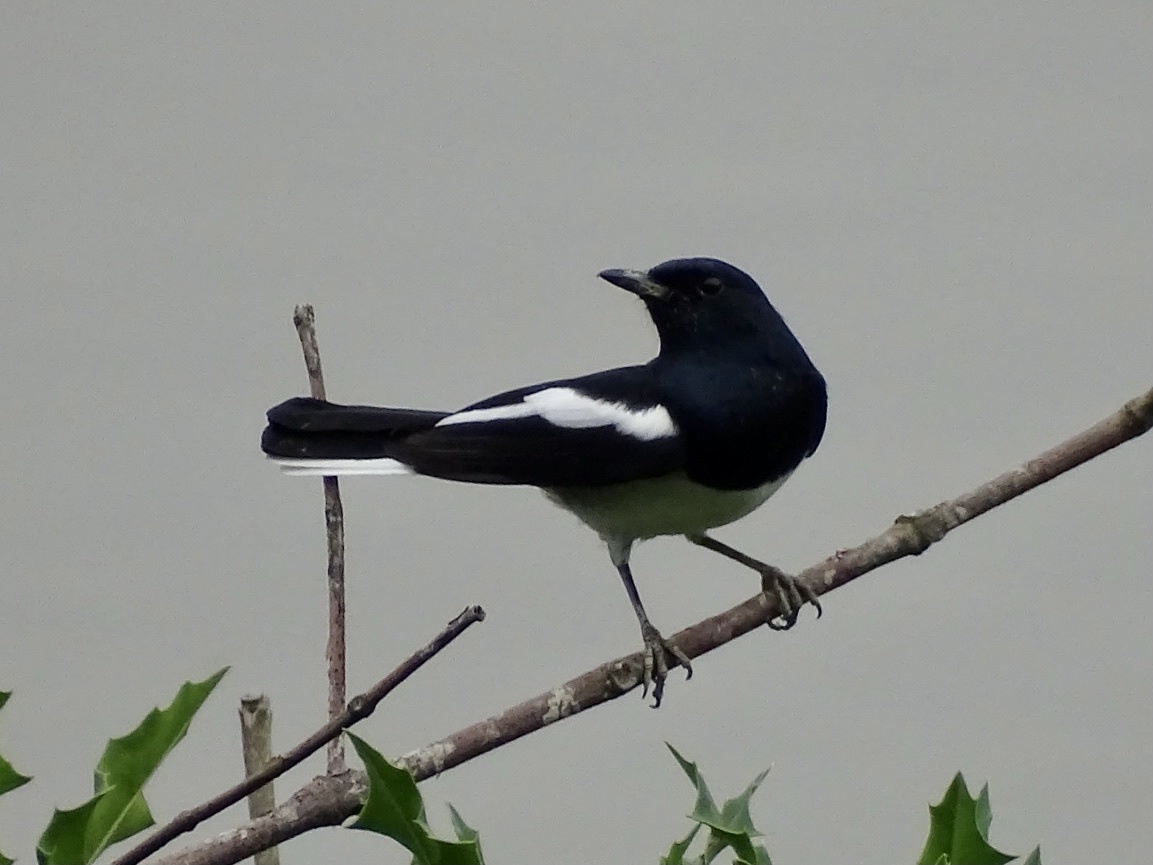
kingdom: Animalia
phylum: Chordata
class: Aves
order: Passeriformes
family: Muscicapidae
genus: Copsychus
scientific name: Copsychus saularis
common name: Oriental magpie-robin
